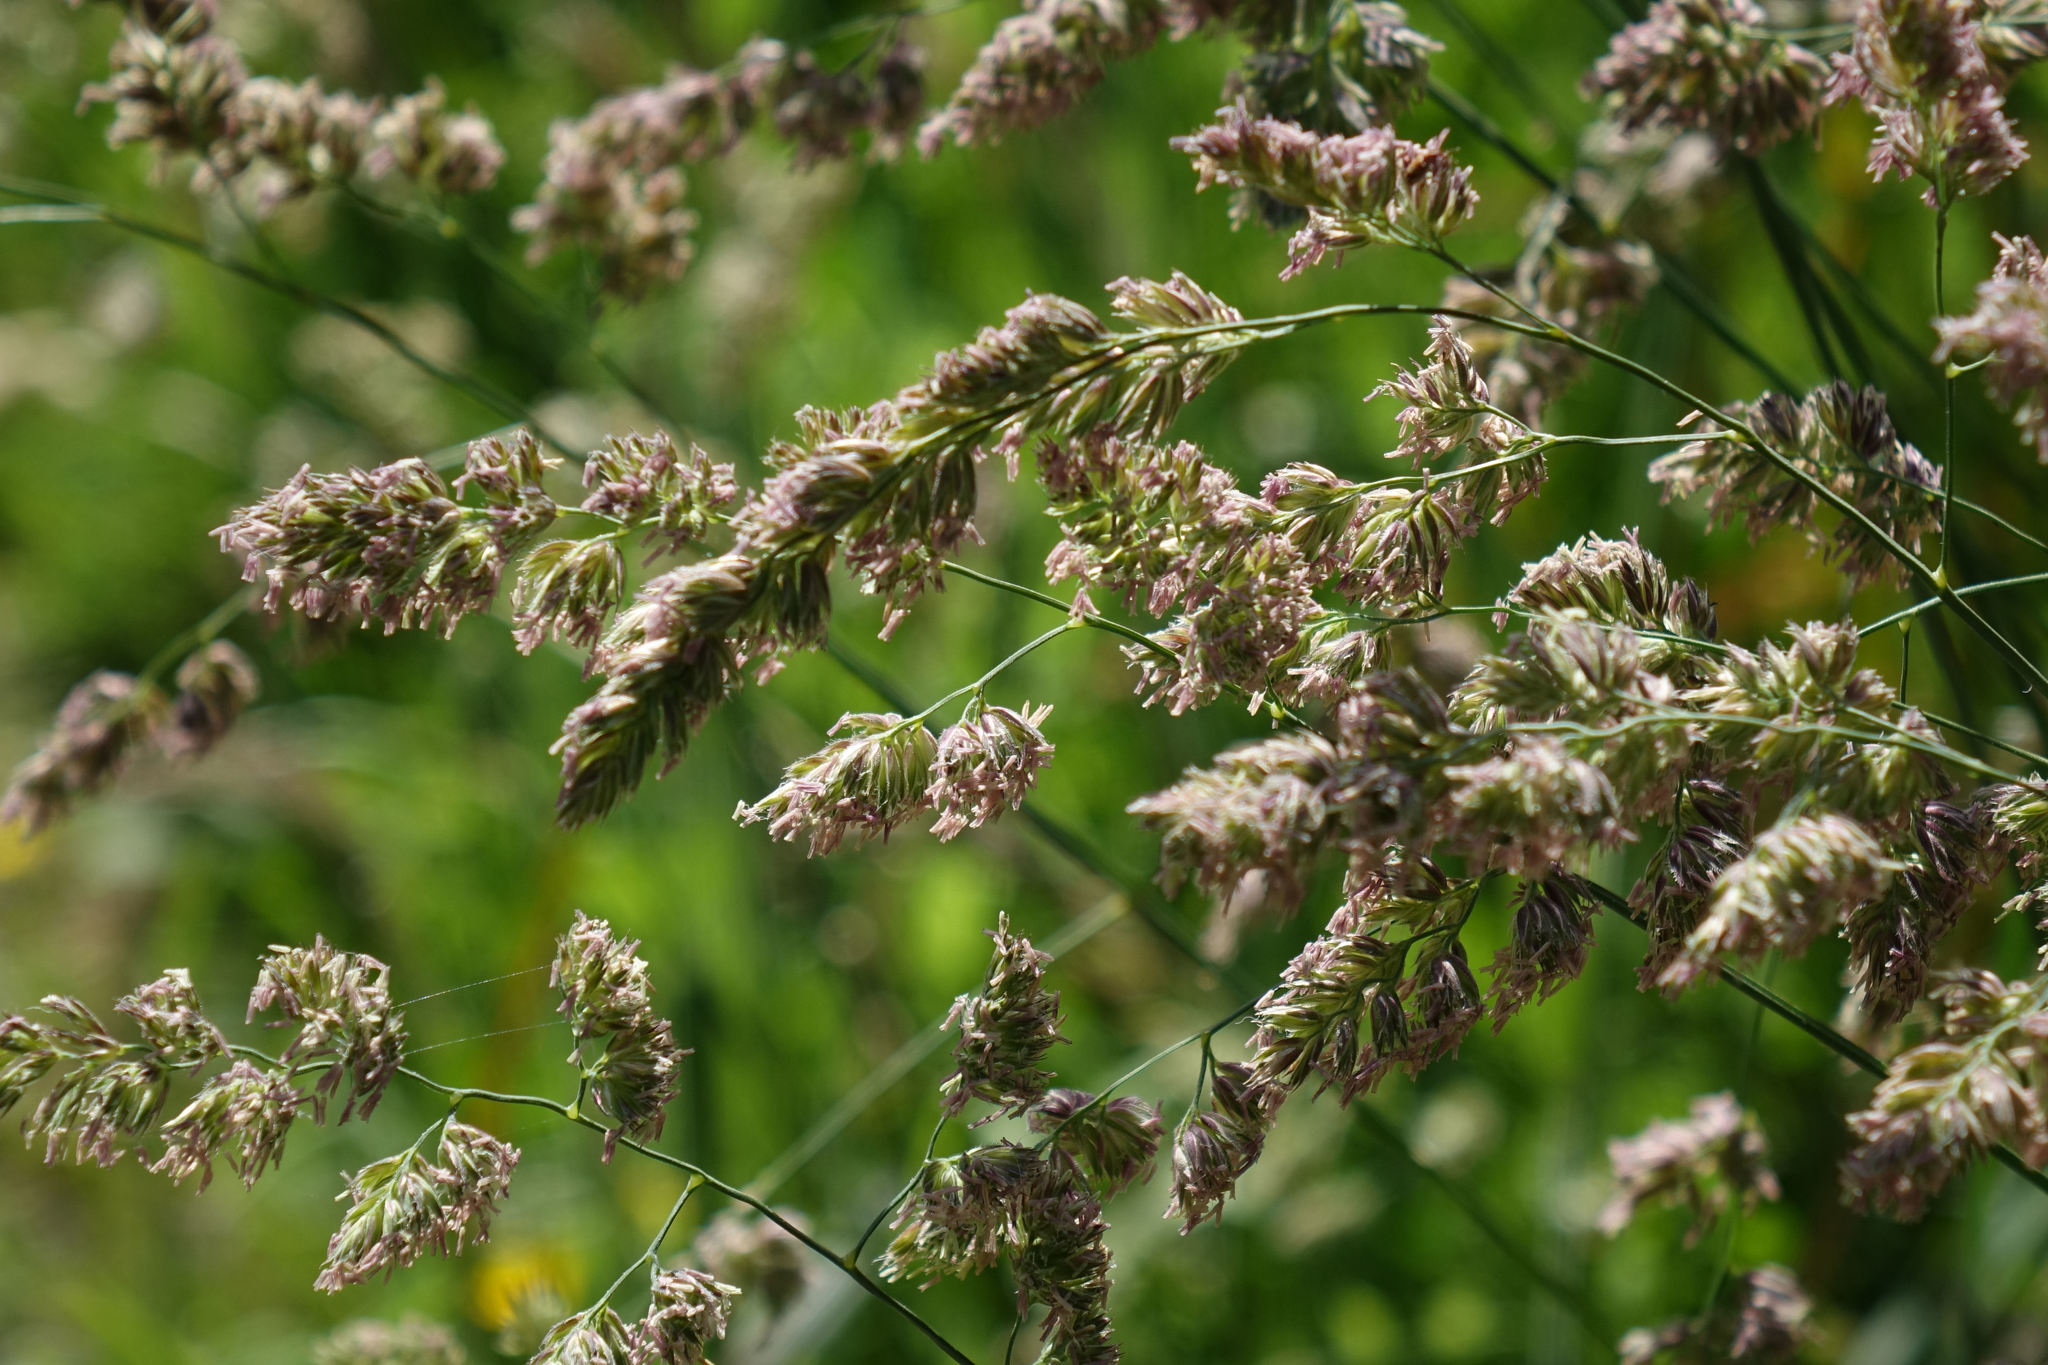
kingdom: Plantae
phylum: Tracheophyta
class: Liliopsida
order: Poales
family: Poaceae
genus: Dactylis
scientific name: Dactylis glomerata
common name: Orchardgrass
